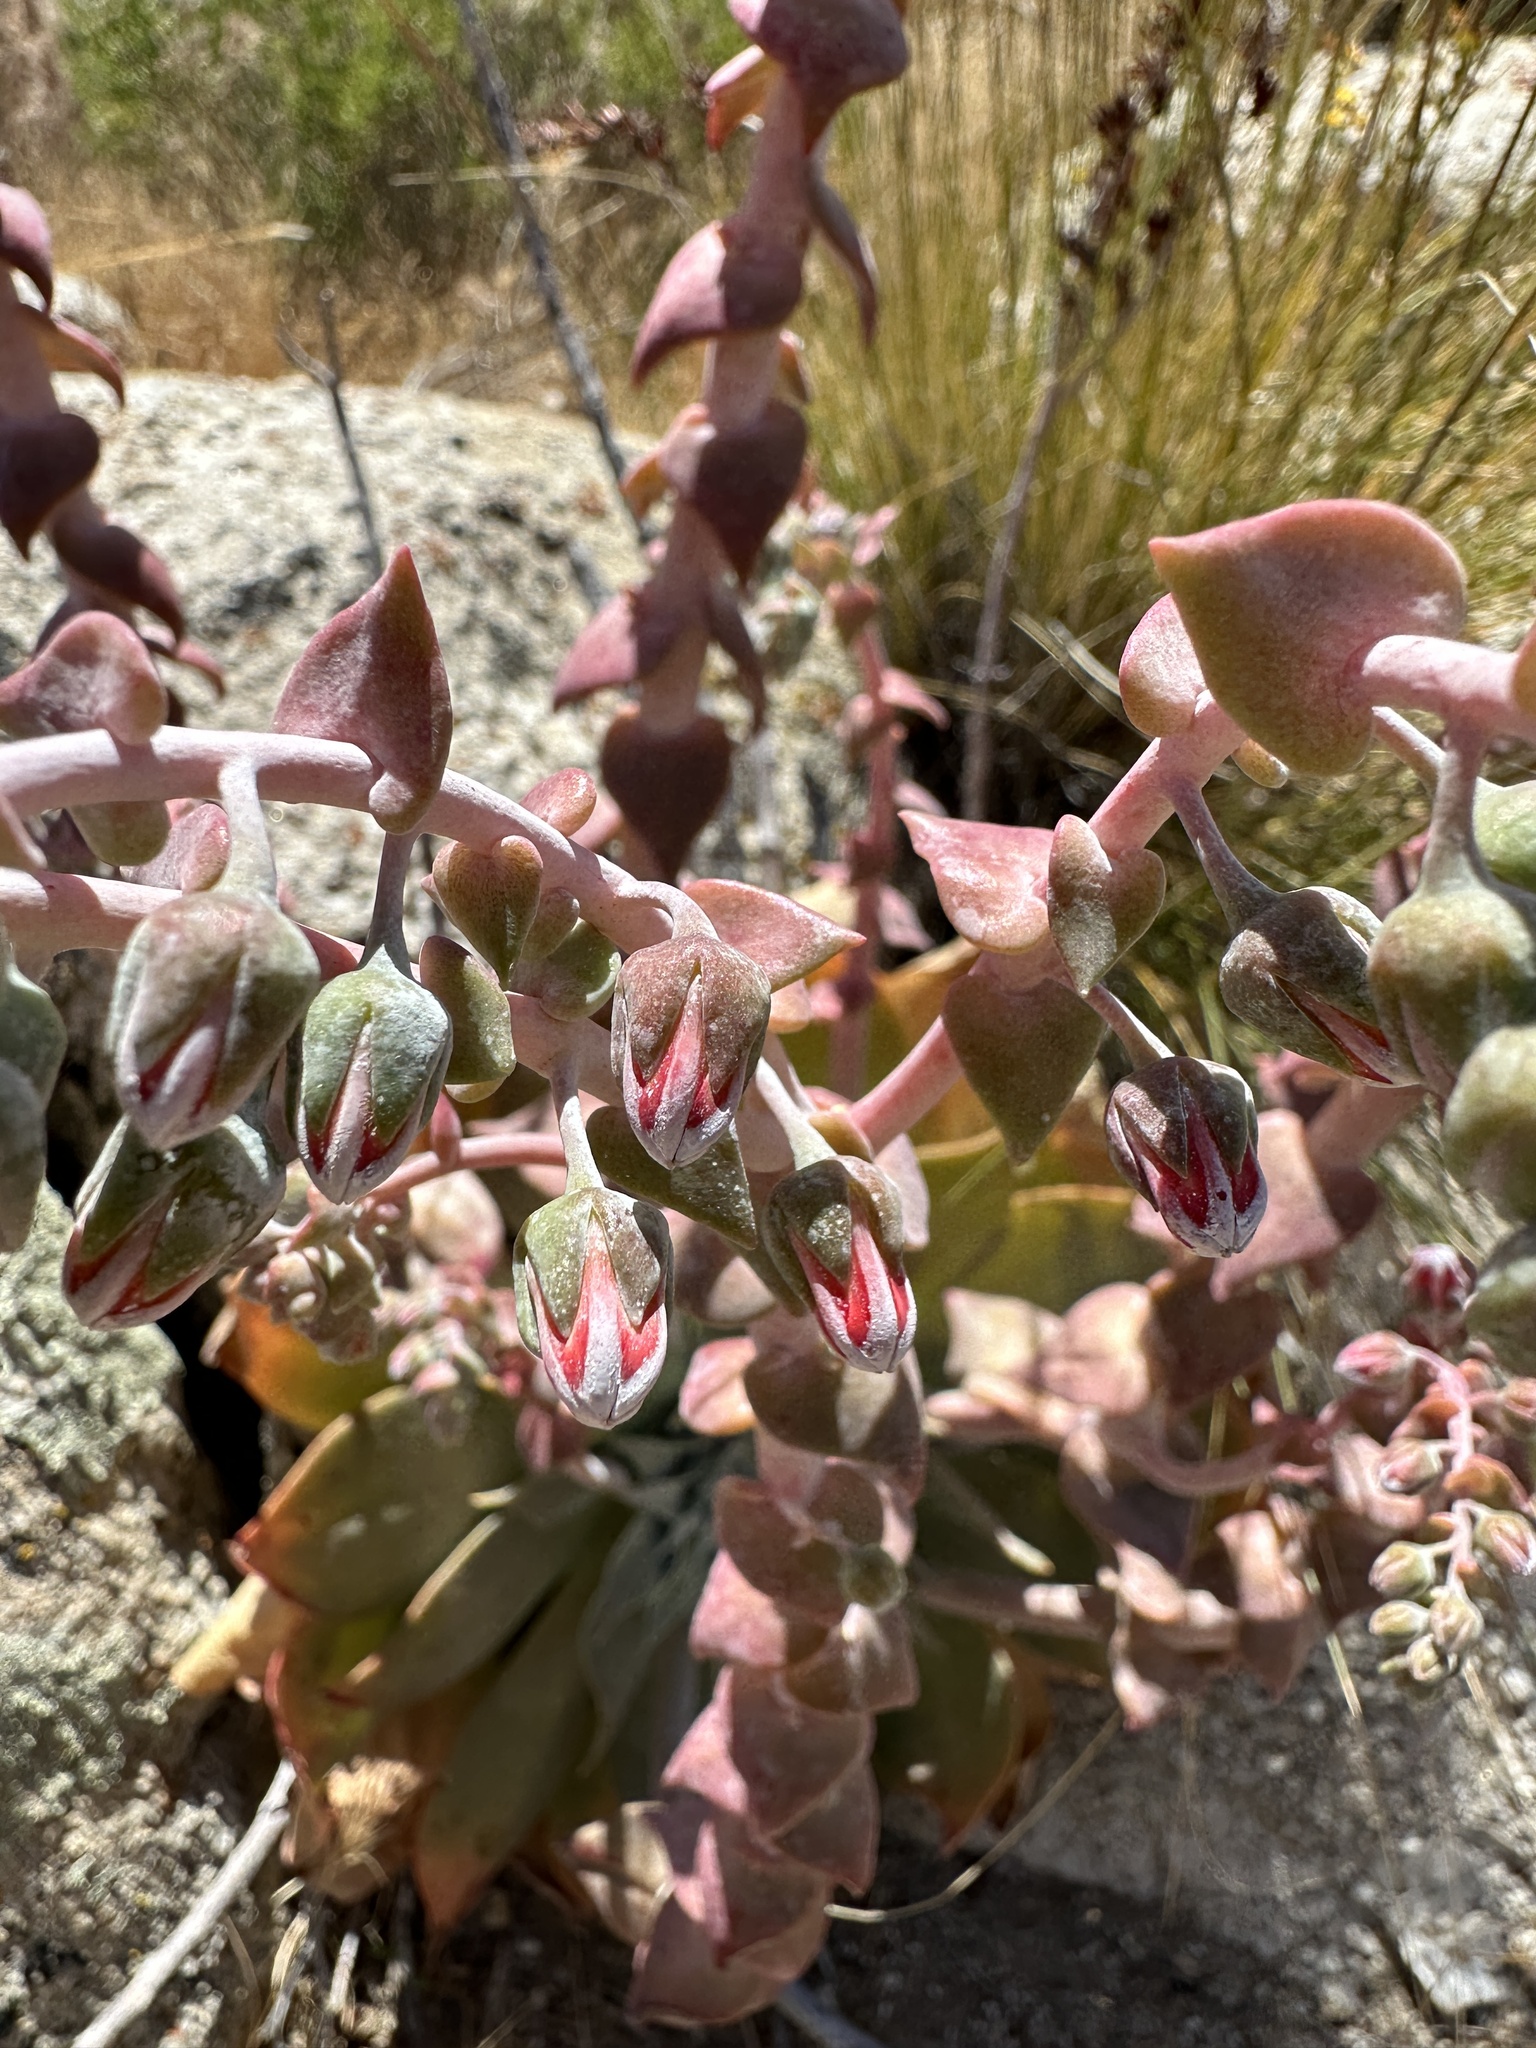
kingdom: Plantae
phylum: Tracheophyta
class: Magnoliopsida
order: Saxifragales
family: Crassulaceae
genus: Dudleya
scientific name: Dudleya arizonica
